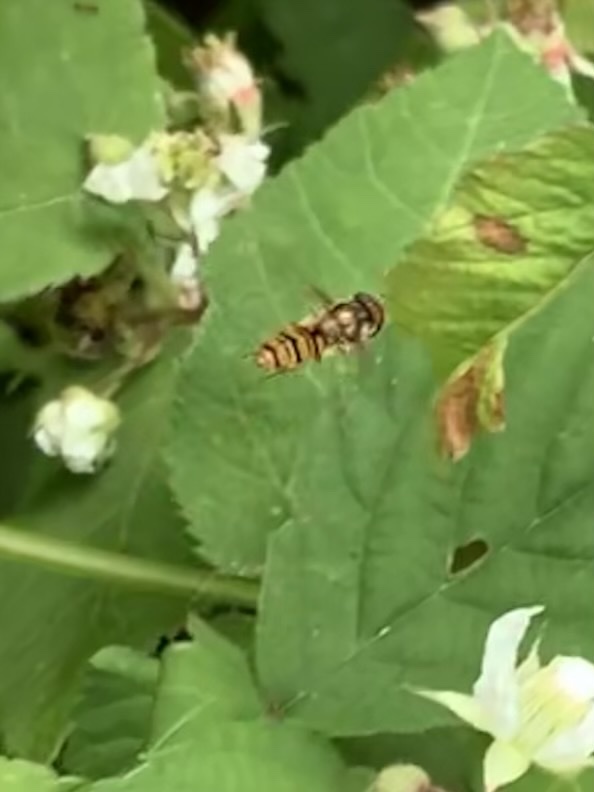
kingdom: Animalia
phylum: Arthropoda
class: Insecta
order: Diptera
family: Syrphidae
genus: Episyrphus
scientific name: Episyrphus balteatus
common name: Marmalade hoverfly
